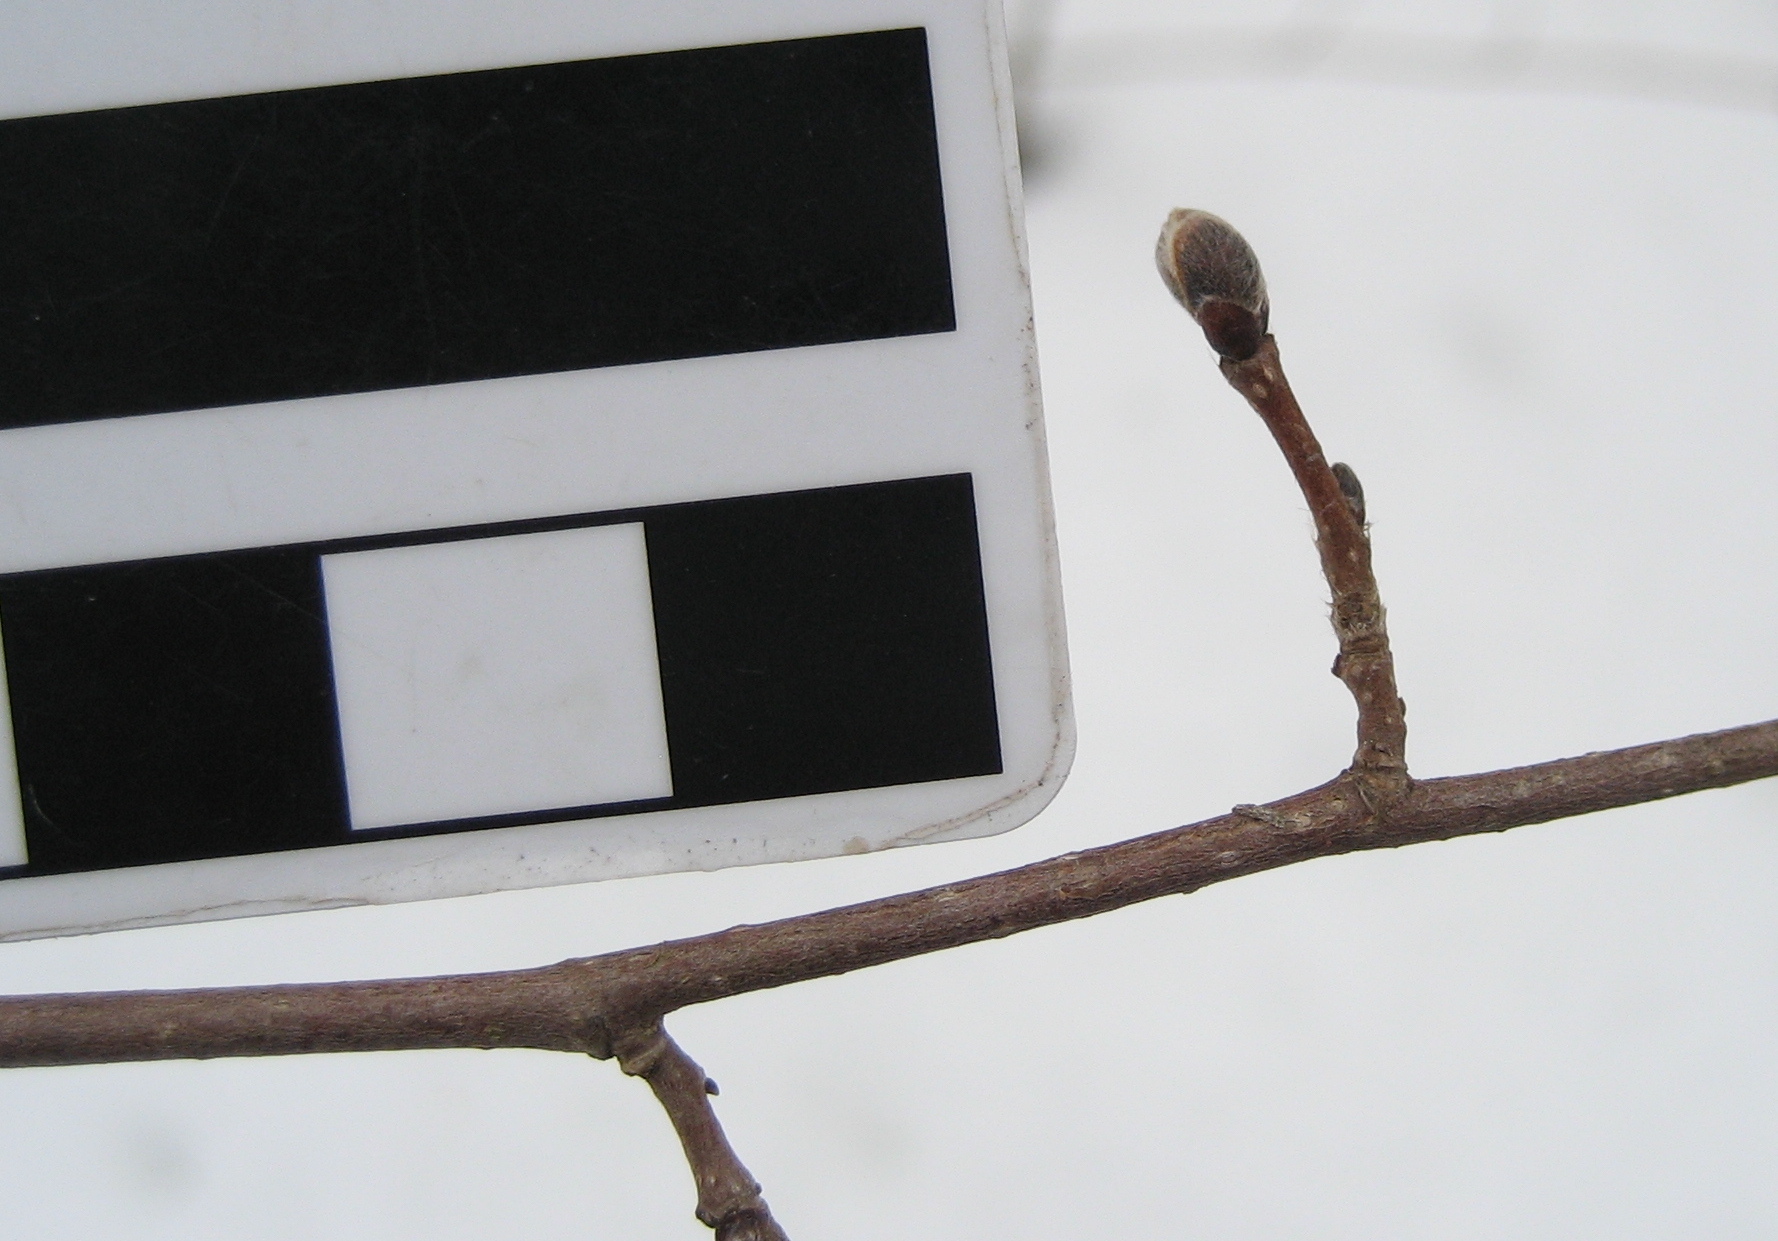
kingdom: Plantae
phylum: Tracheophyta
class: Magnoliopsida
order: Fagales
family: Betulaceae
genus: Corylus
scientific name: Corylus cornuta
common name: Beaked hazel
